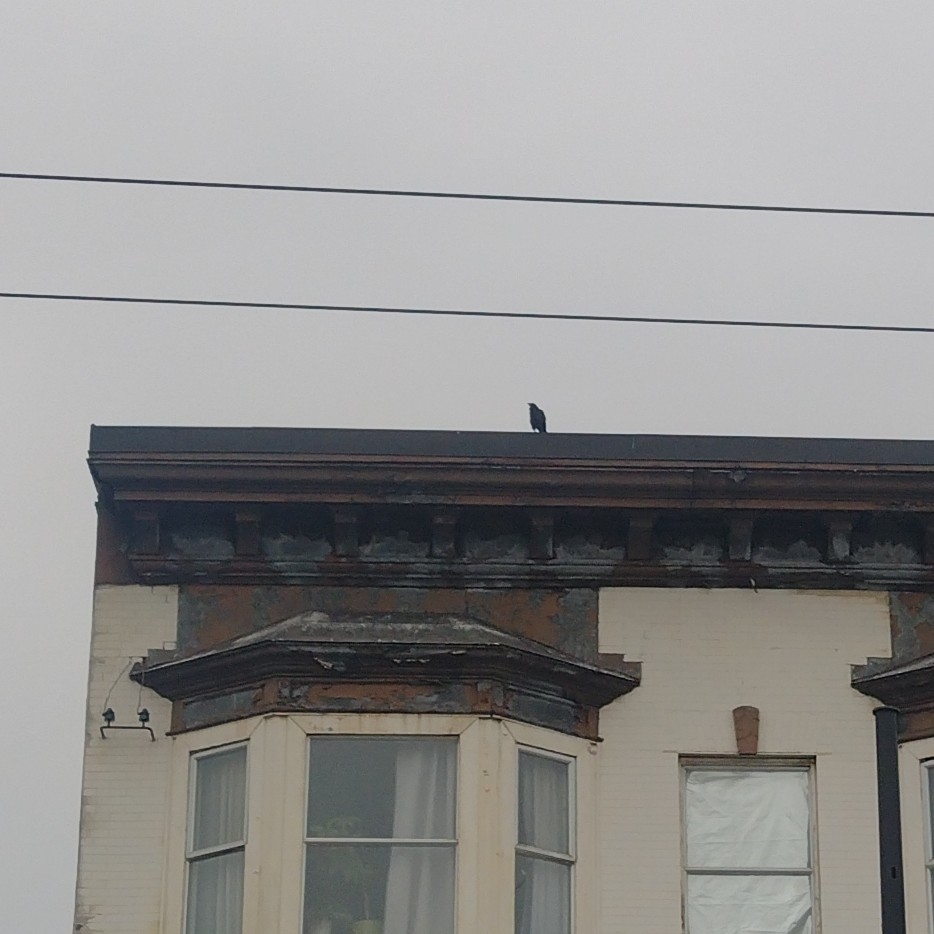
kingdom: Animalia
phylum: Chordata
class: Aves
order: Passeriformes
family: Corvidae
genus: Corvus
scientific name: Corvus brachyrhynchos
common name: American crow
